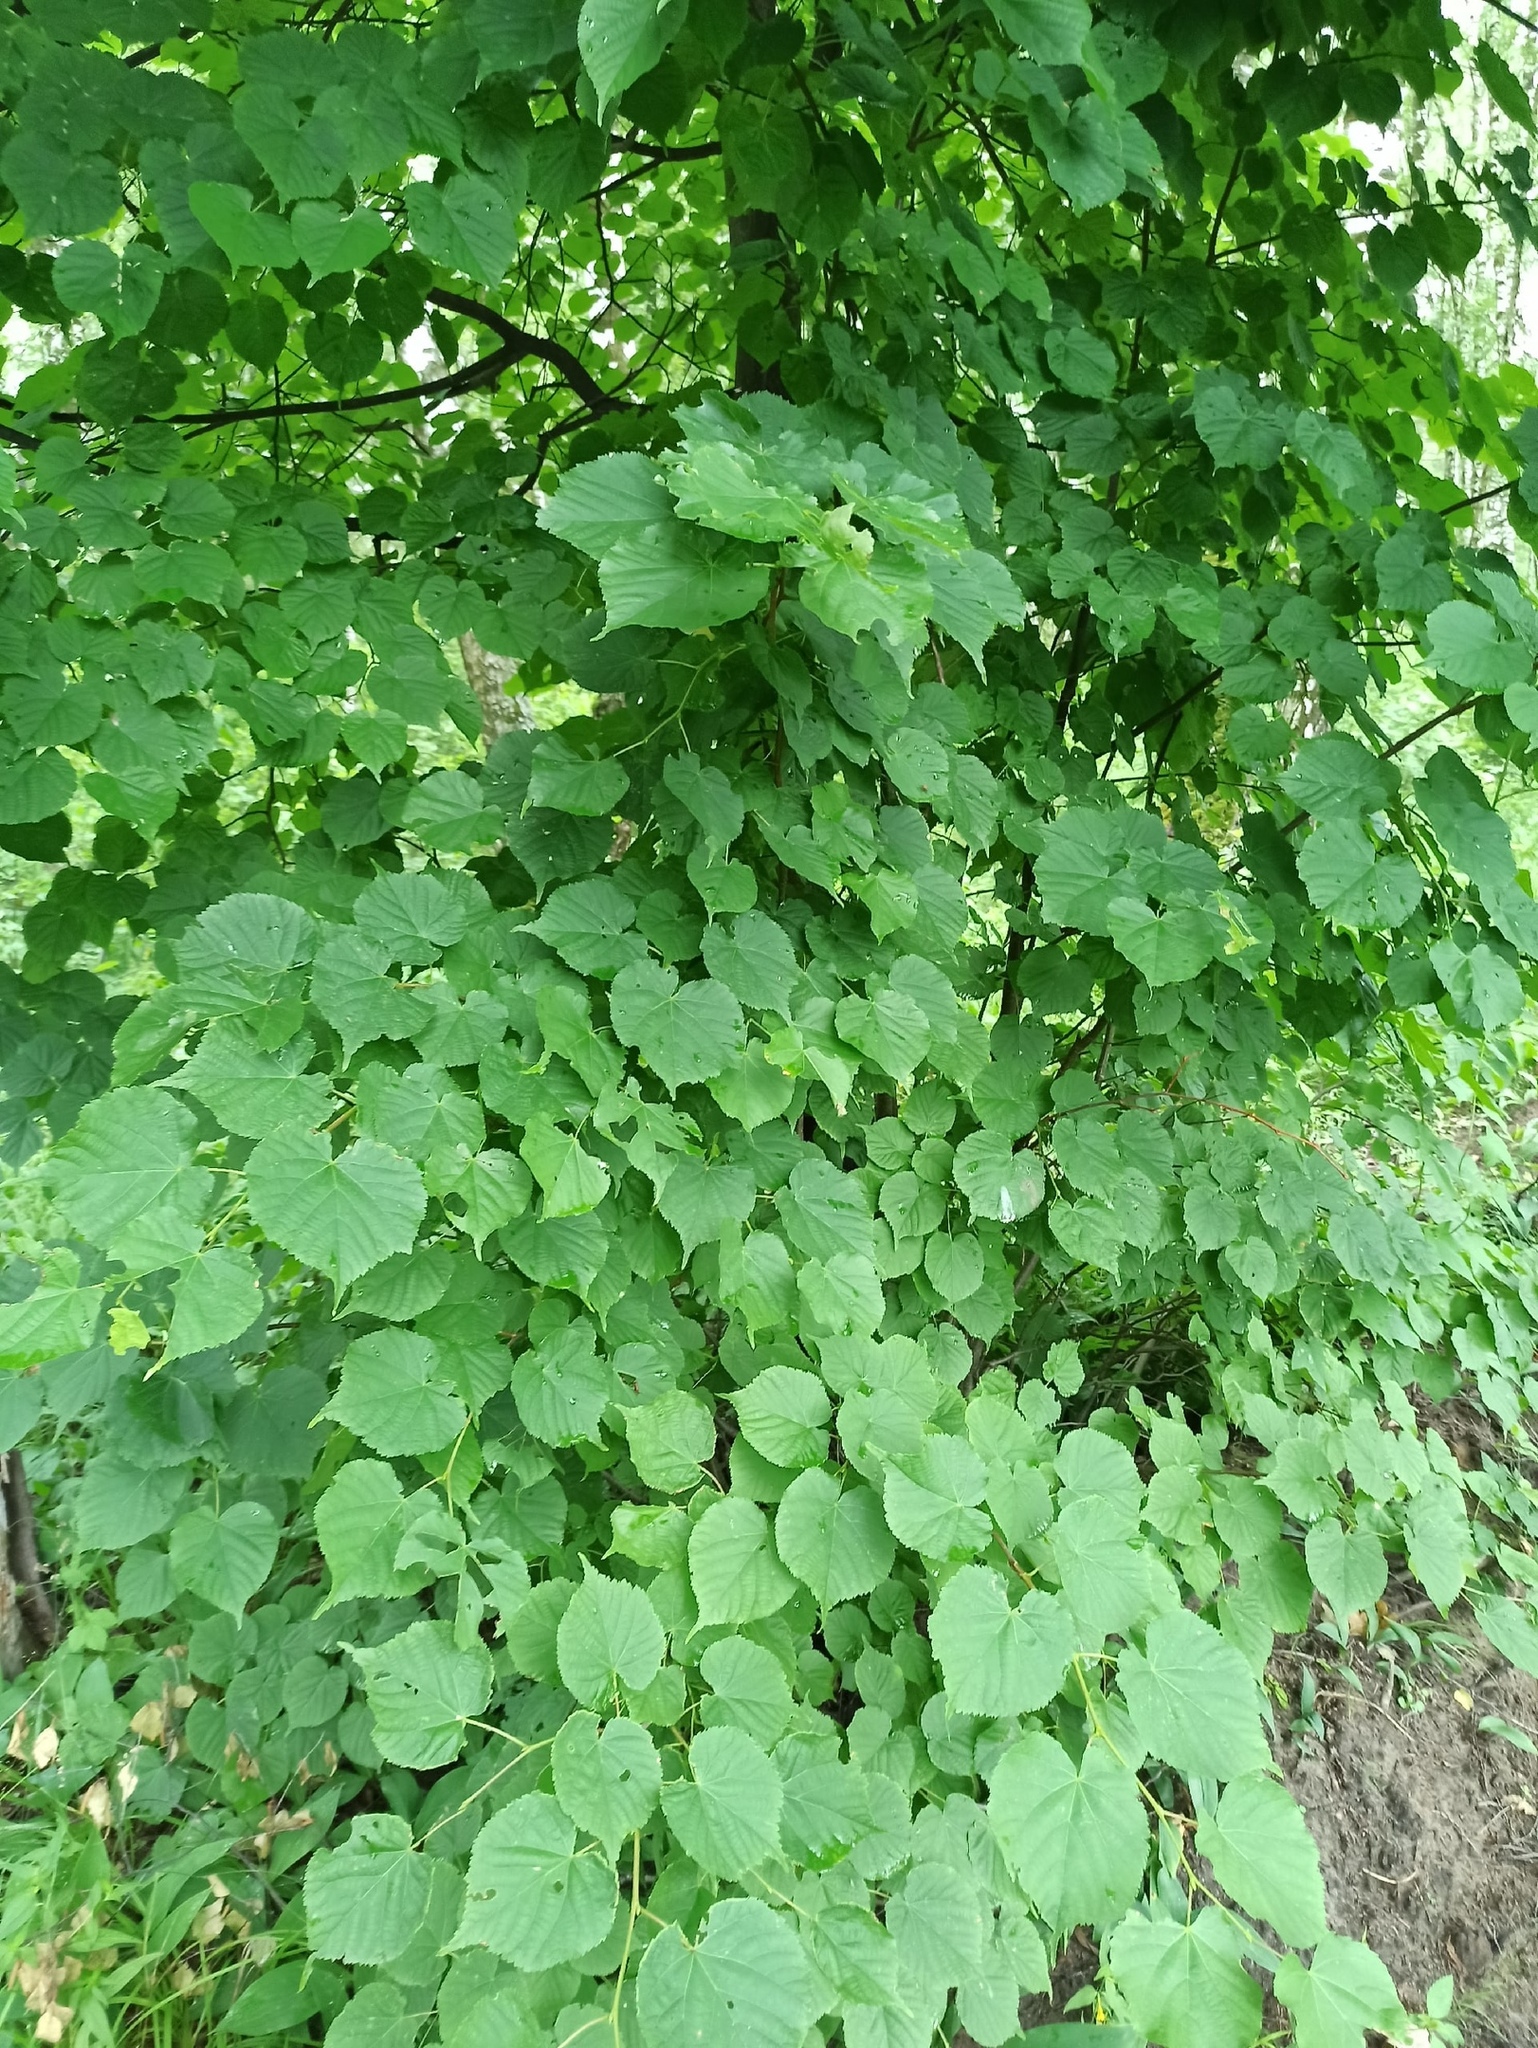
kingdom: Plantae
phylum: Tracheophyta
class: Magnoliopsida
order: Malvales
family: Malvaceae
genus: Tilia
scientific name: Tilia cordata
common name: Small-leaved lime
